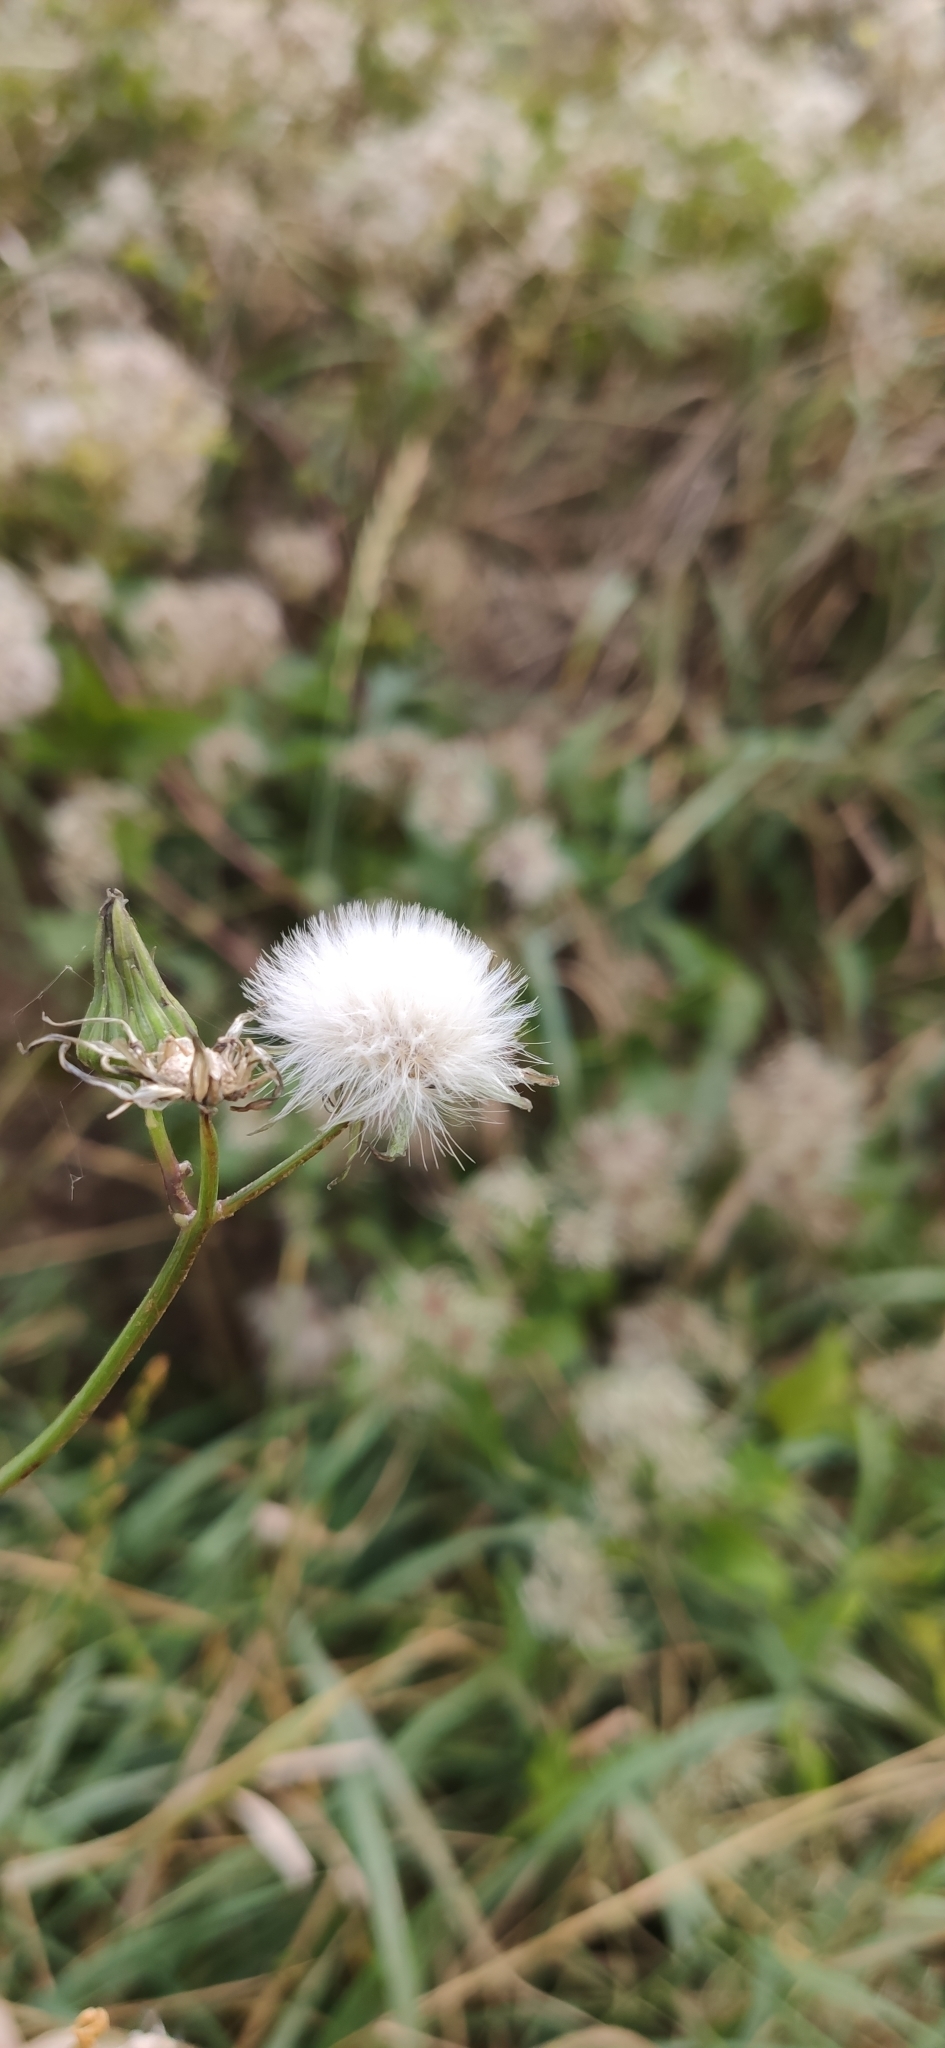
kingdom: Plantae
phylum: Tracheophyta
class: Magnoliopsida
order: Asterales
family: Asteraceae
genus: Sonchus
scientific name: Sonchus oleraceus
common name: Common sowthistle
